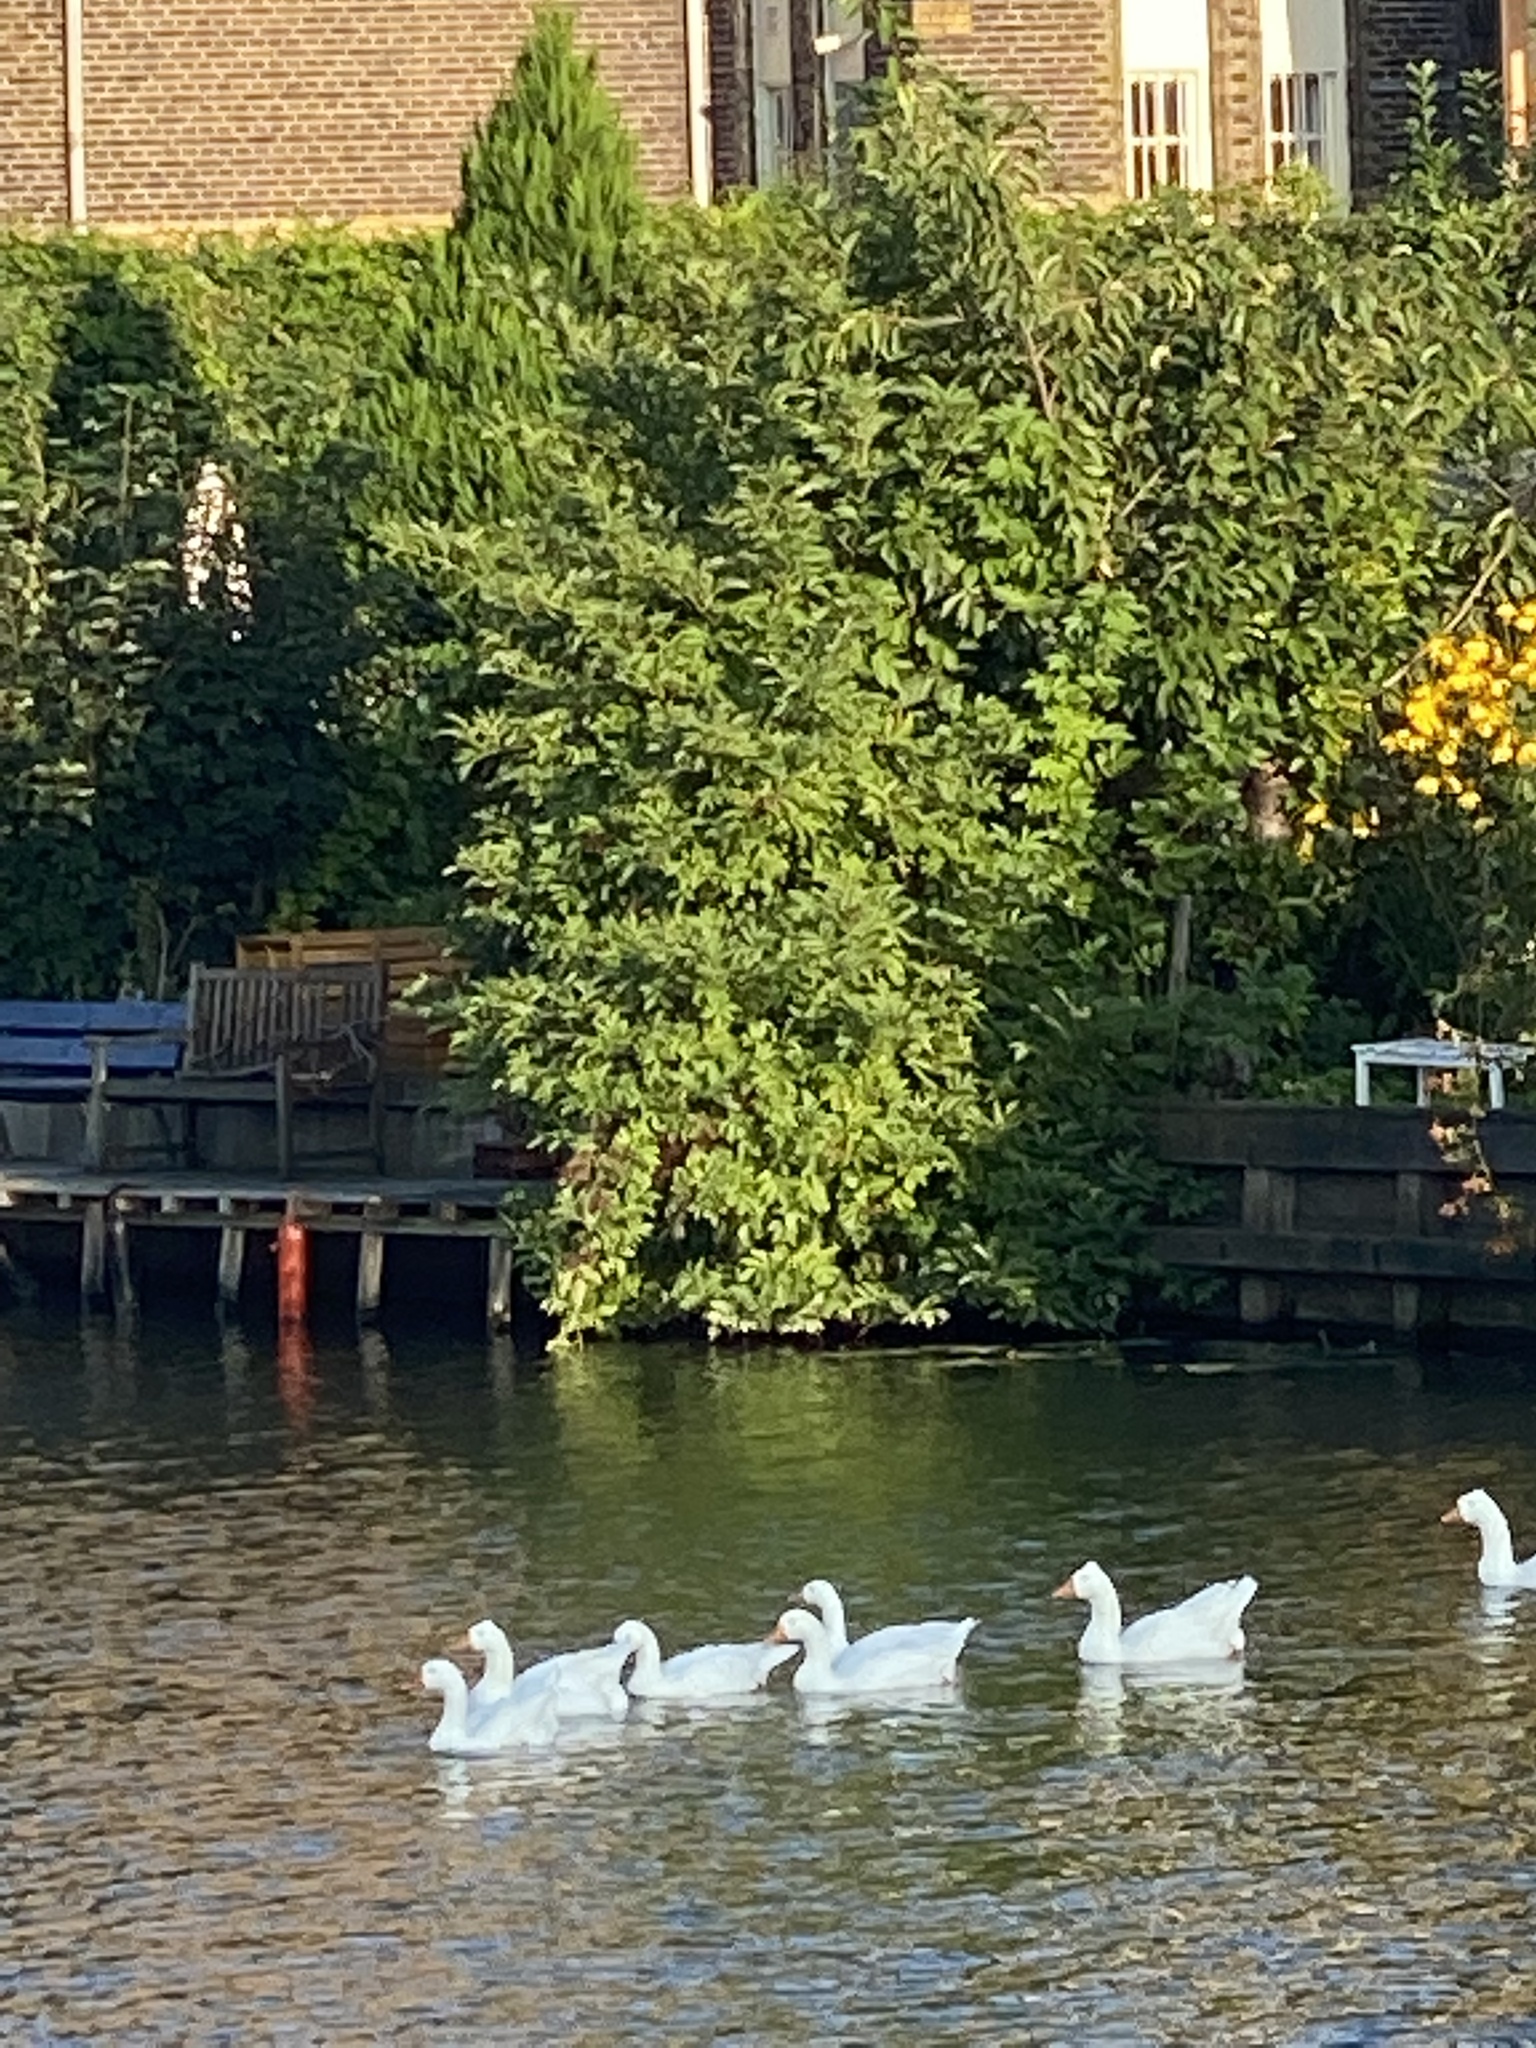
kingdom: Animalia
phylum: Chordata
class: Aves
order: Anseriformes
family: Anatidae
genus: Anser
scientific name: Anser anser
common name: Greylag goose
